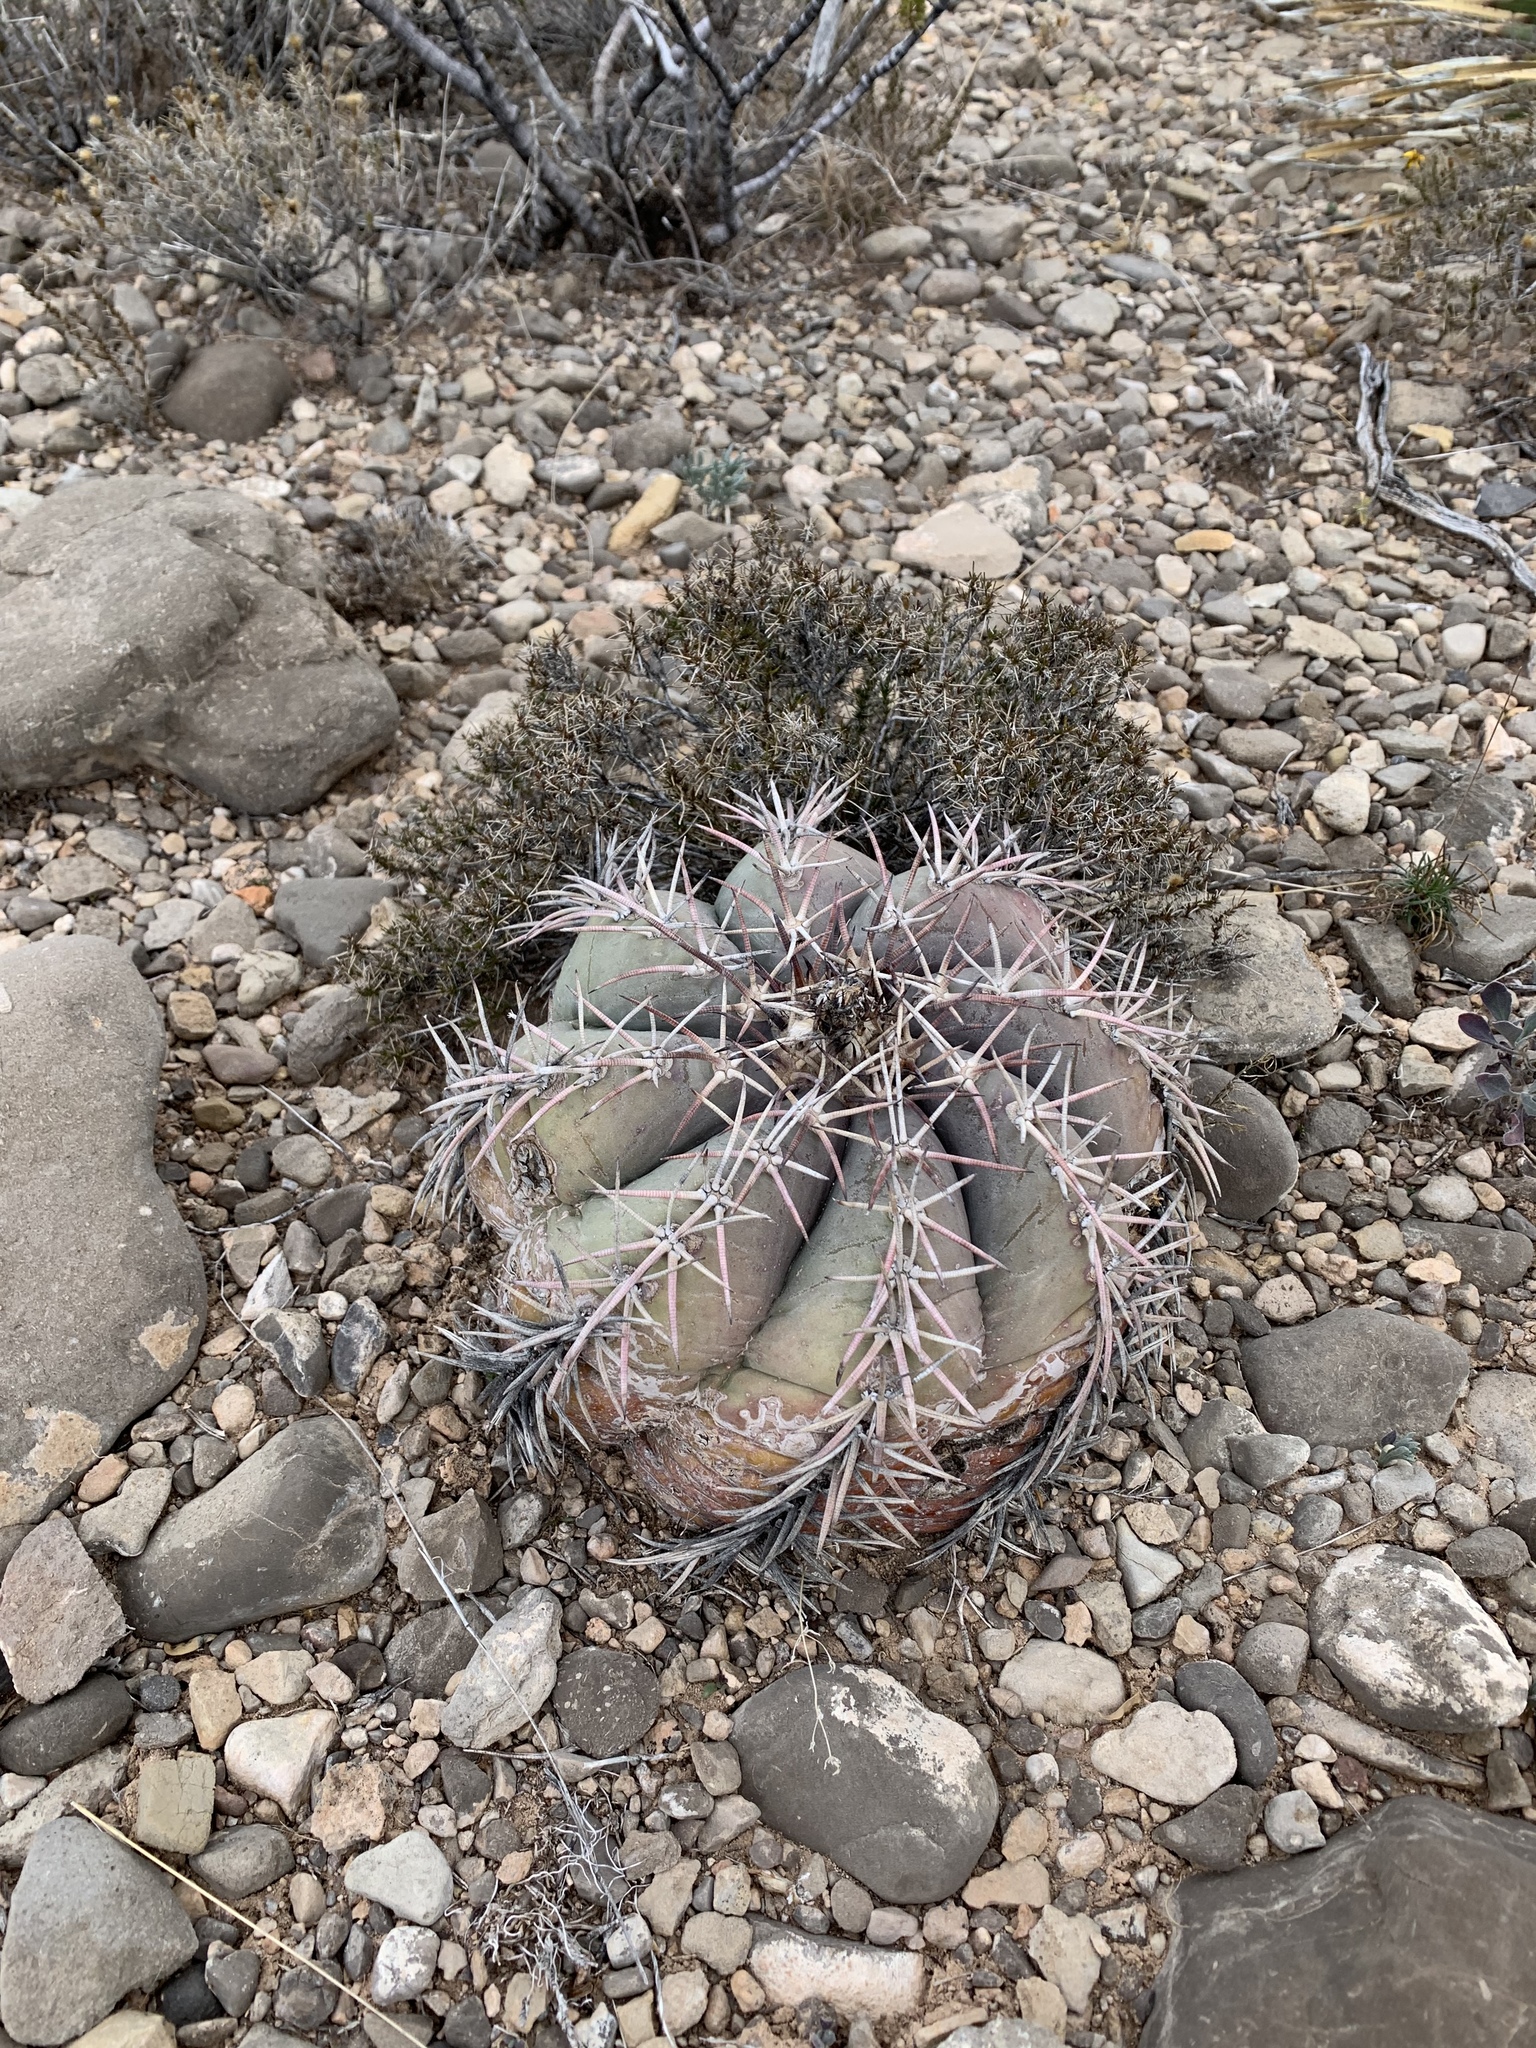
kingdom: Plantae
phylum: Tracheophyta
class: Magnoliopsida
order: Caryophyllales
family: Cactaceae
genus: Echinocactus
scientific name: Echinocactus horizonthalonius
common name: Devilshead
